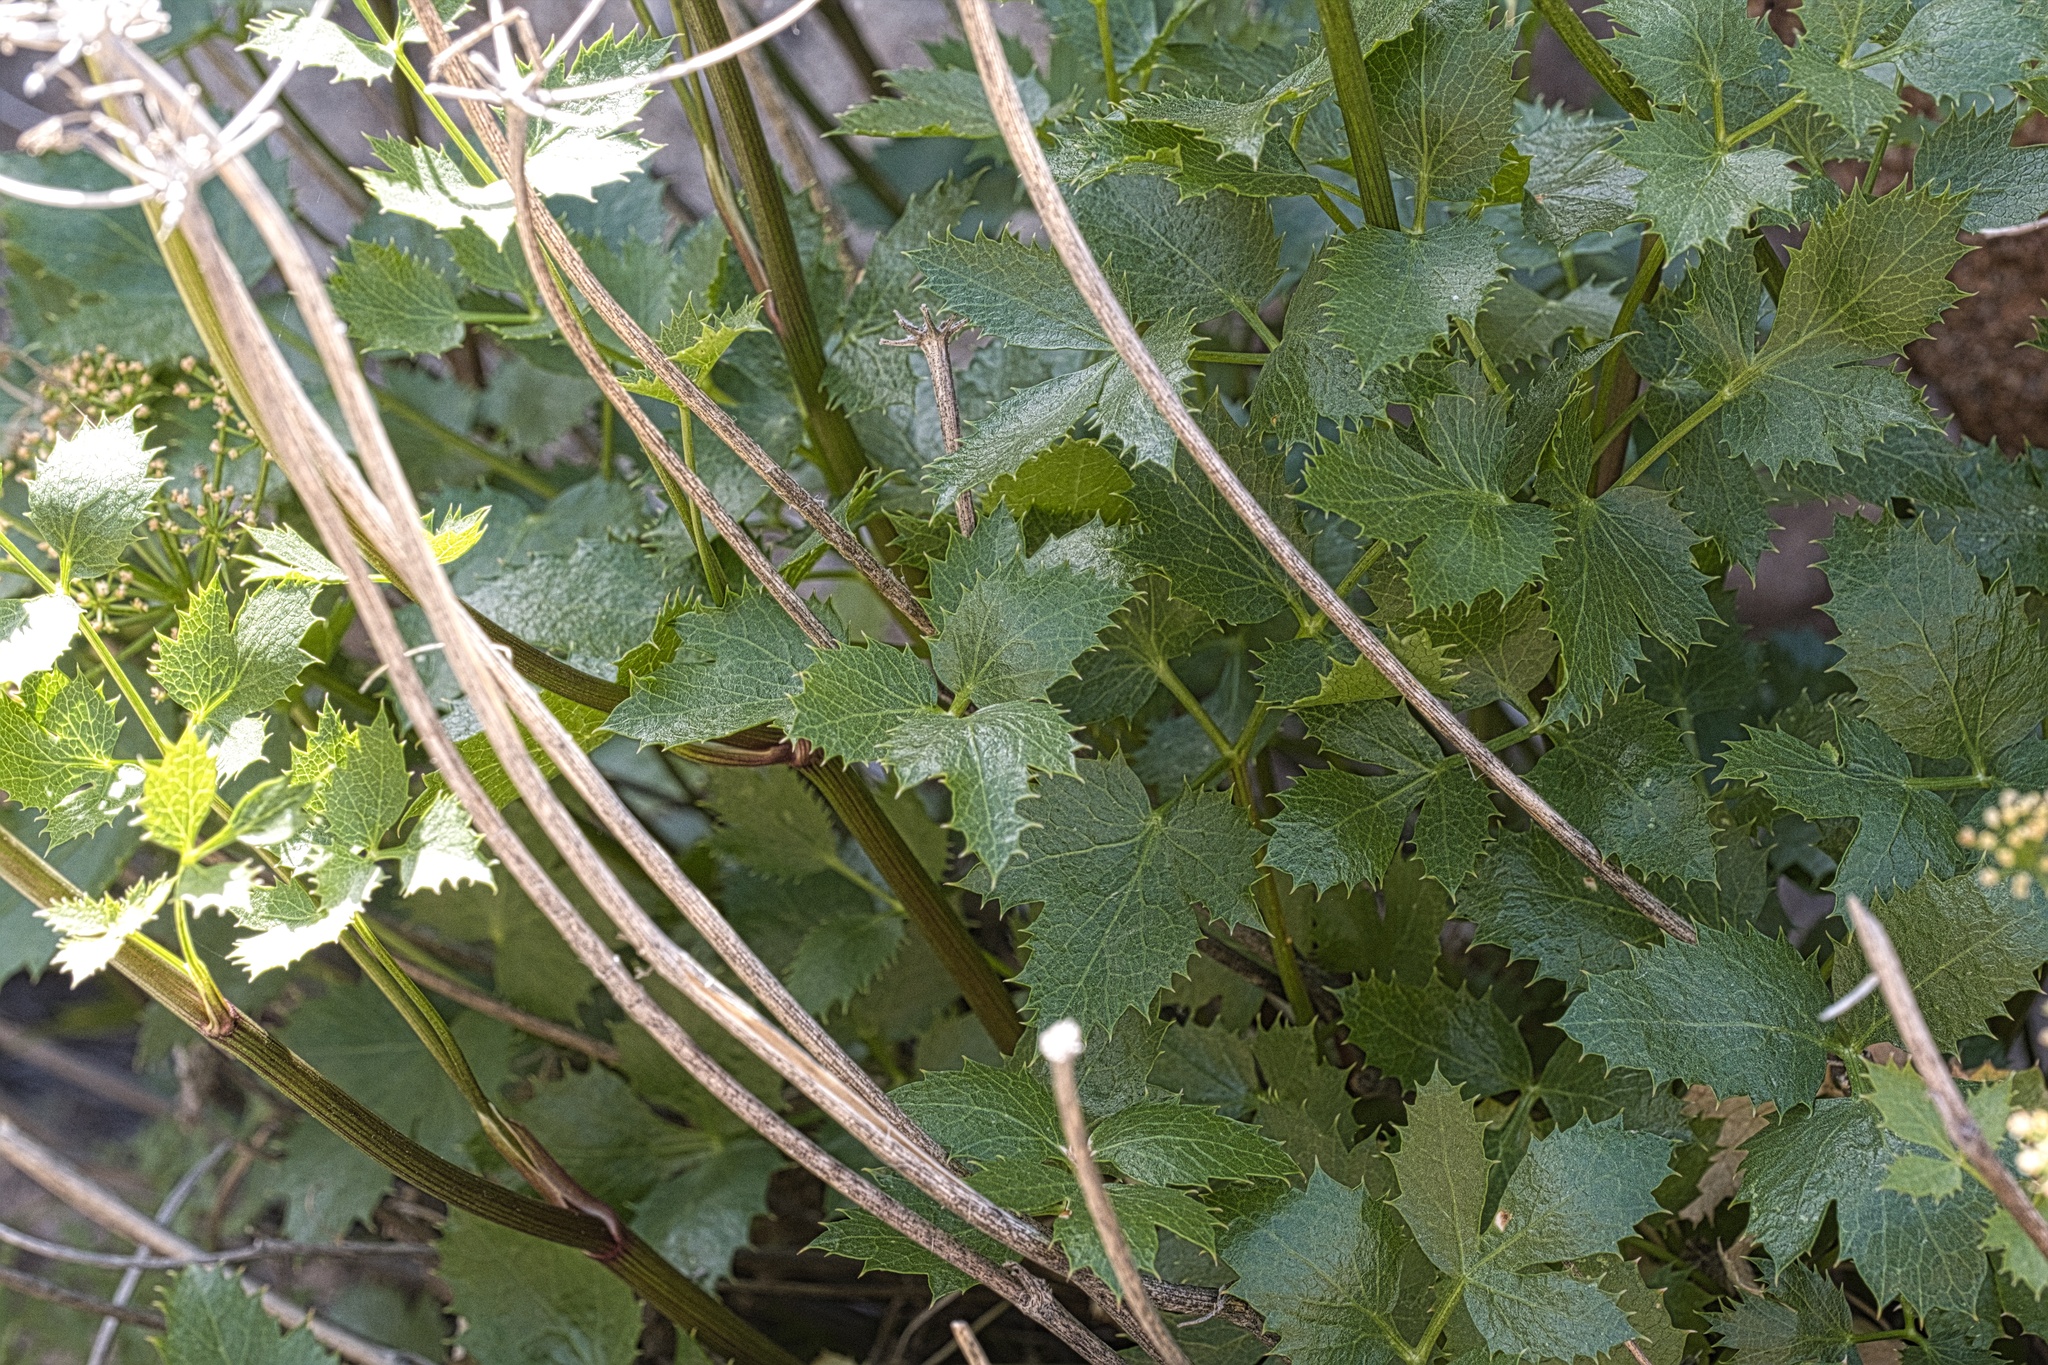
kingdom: Plantae
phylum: Tracheophyta
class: Magnoliopsida
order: Apiales
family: Apiaceae
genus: Tauschia
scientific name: Tauschia arguta
